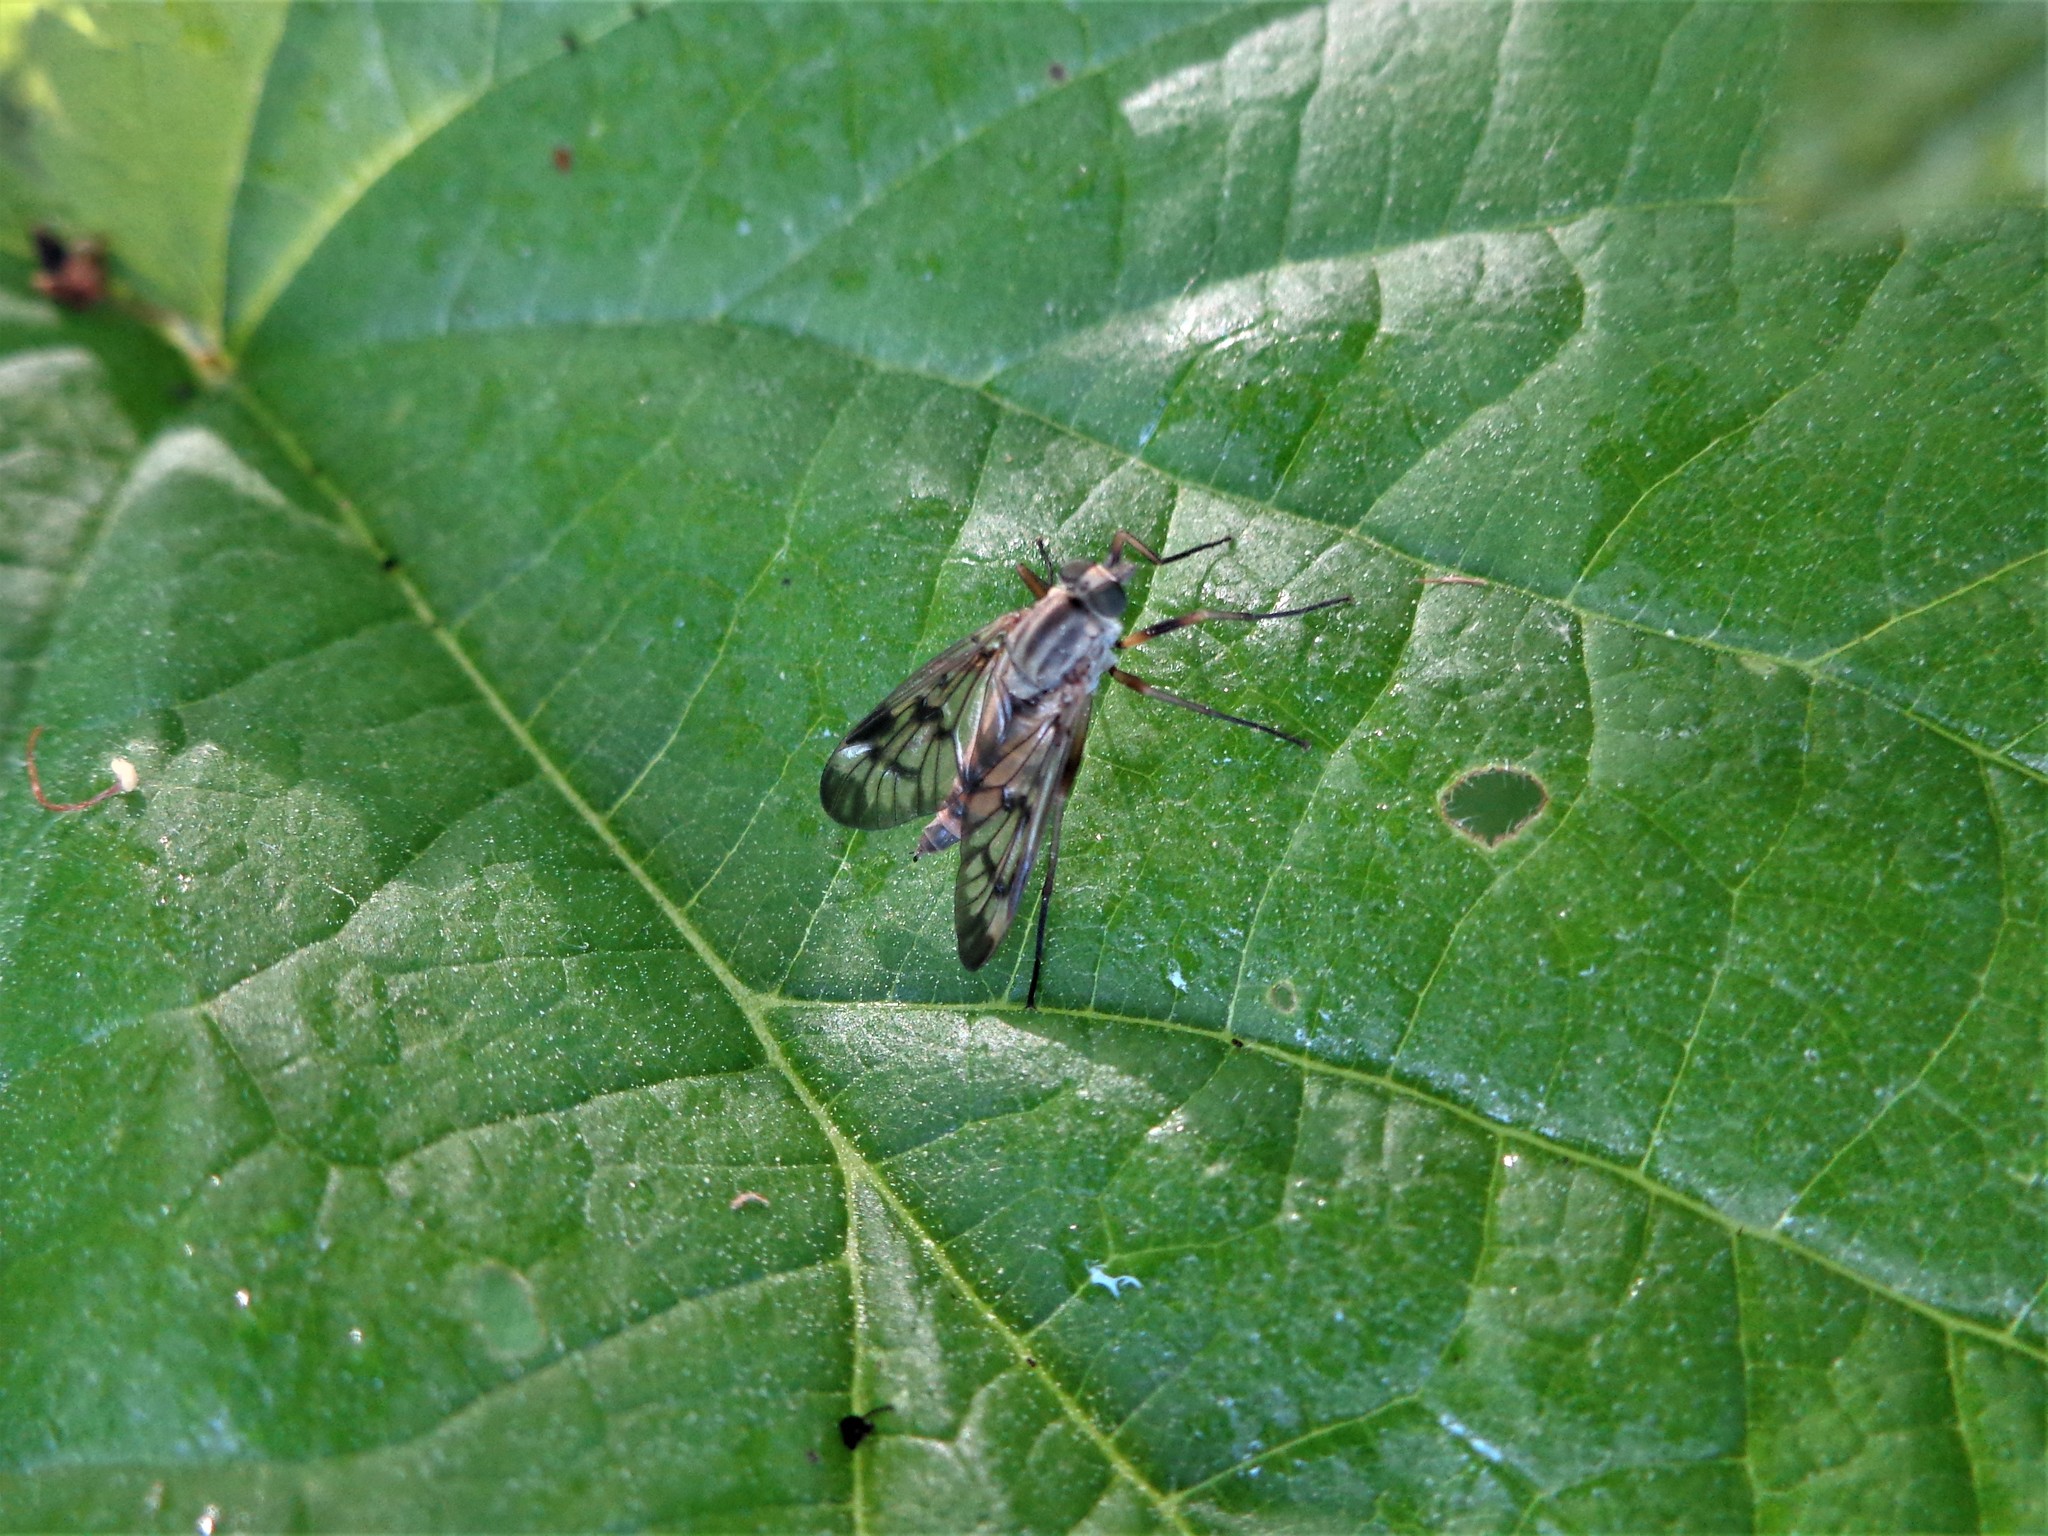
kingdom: Animalia
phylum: Arthropoda
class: Insecta
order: Diptera
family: Rhagionidae
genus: Rhagio
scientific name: Rhagio scolopacea
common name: Downlooker snipefly
